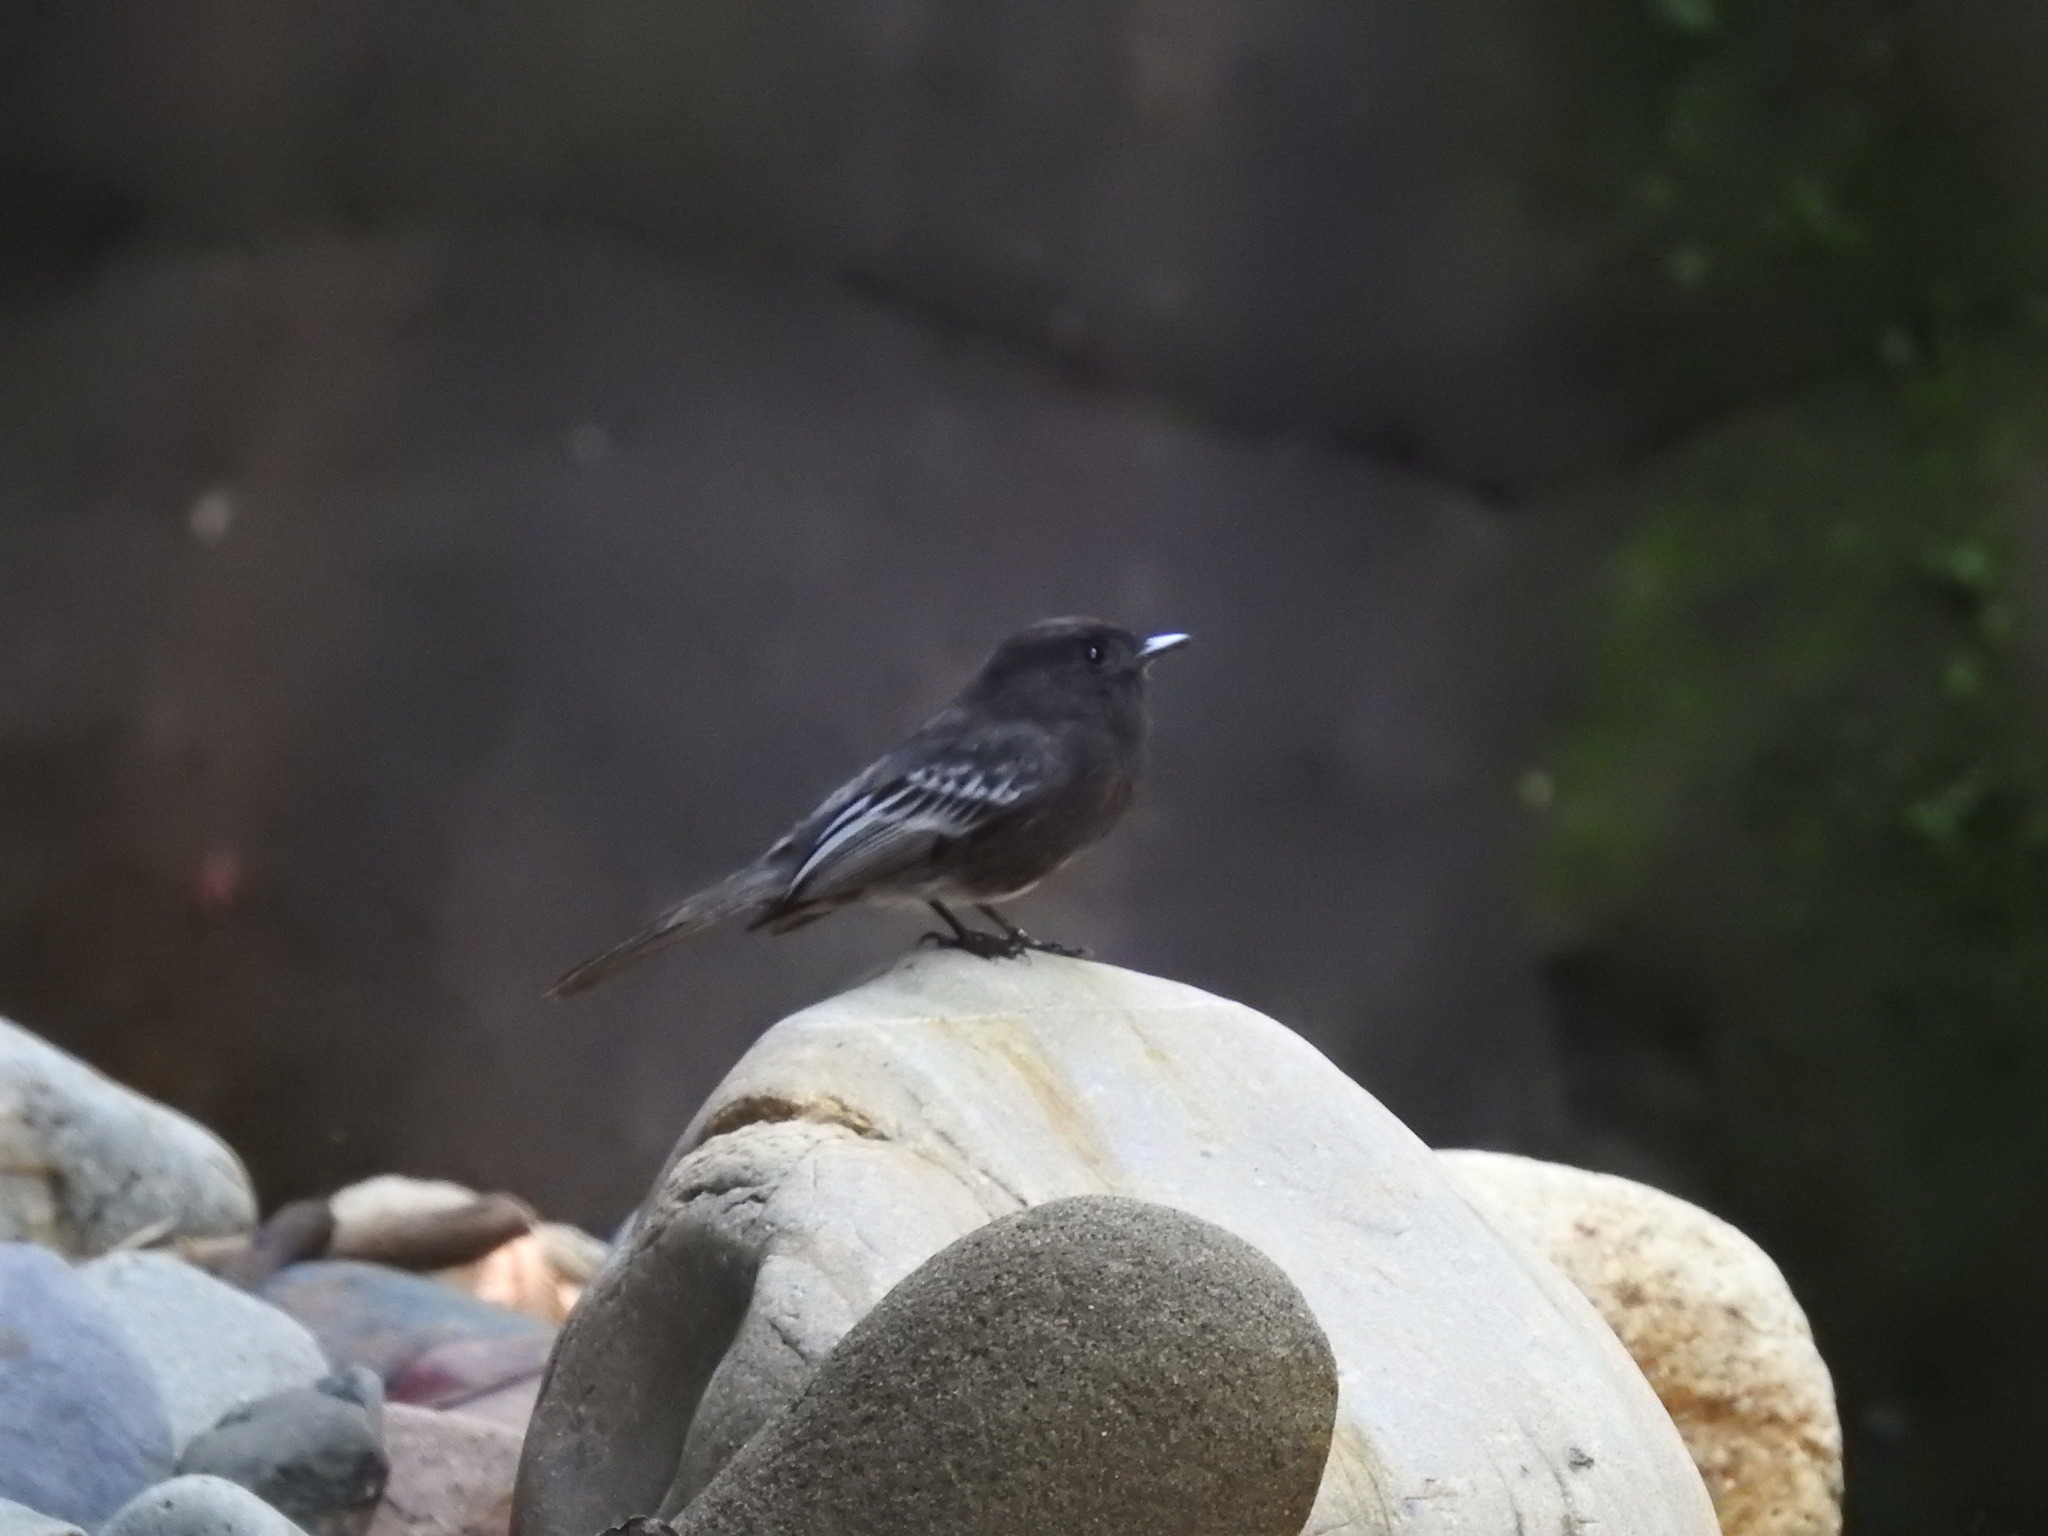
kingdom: Animalia
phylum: Chordata
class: Aves
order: Passeriformes
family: Tyrannidae
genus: Sayornis
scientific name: Sayornis nigricans
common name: Black phoebe
